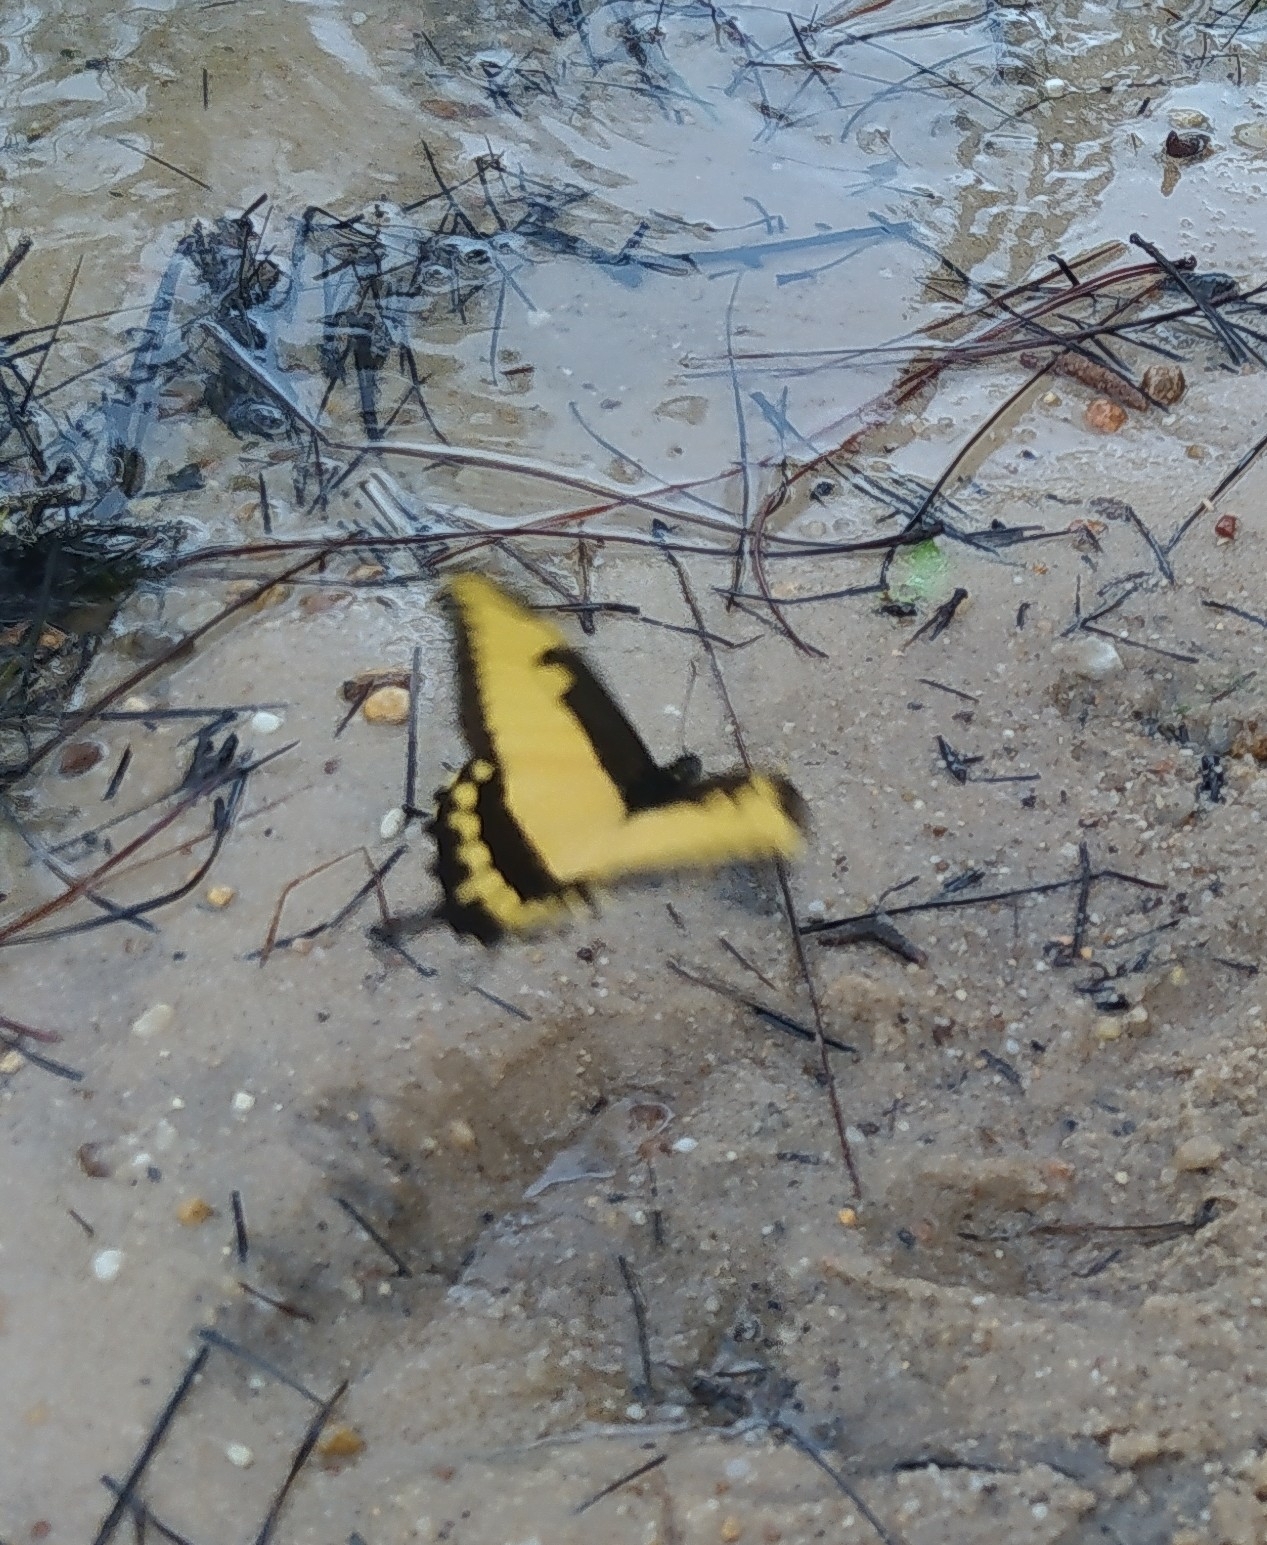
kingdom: Animalia
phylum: Arthropoda
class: Insecta
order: Lepidoptera
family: Papilionidae
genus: Papilio
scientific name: Papilio astyalus
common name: Astyalus swallowtail
